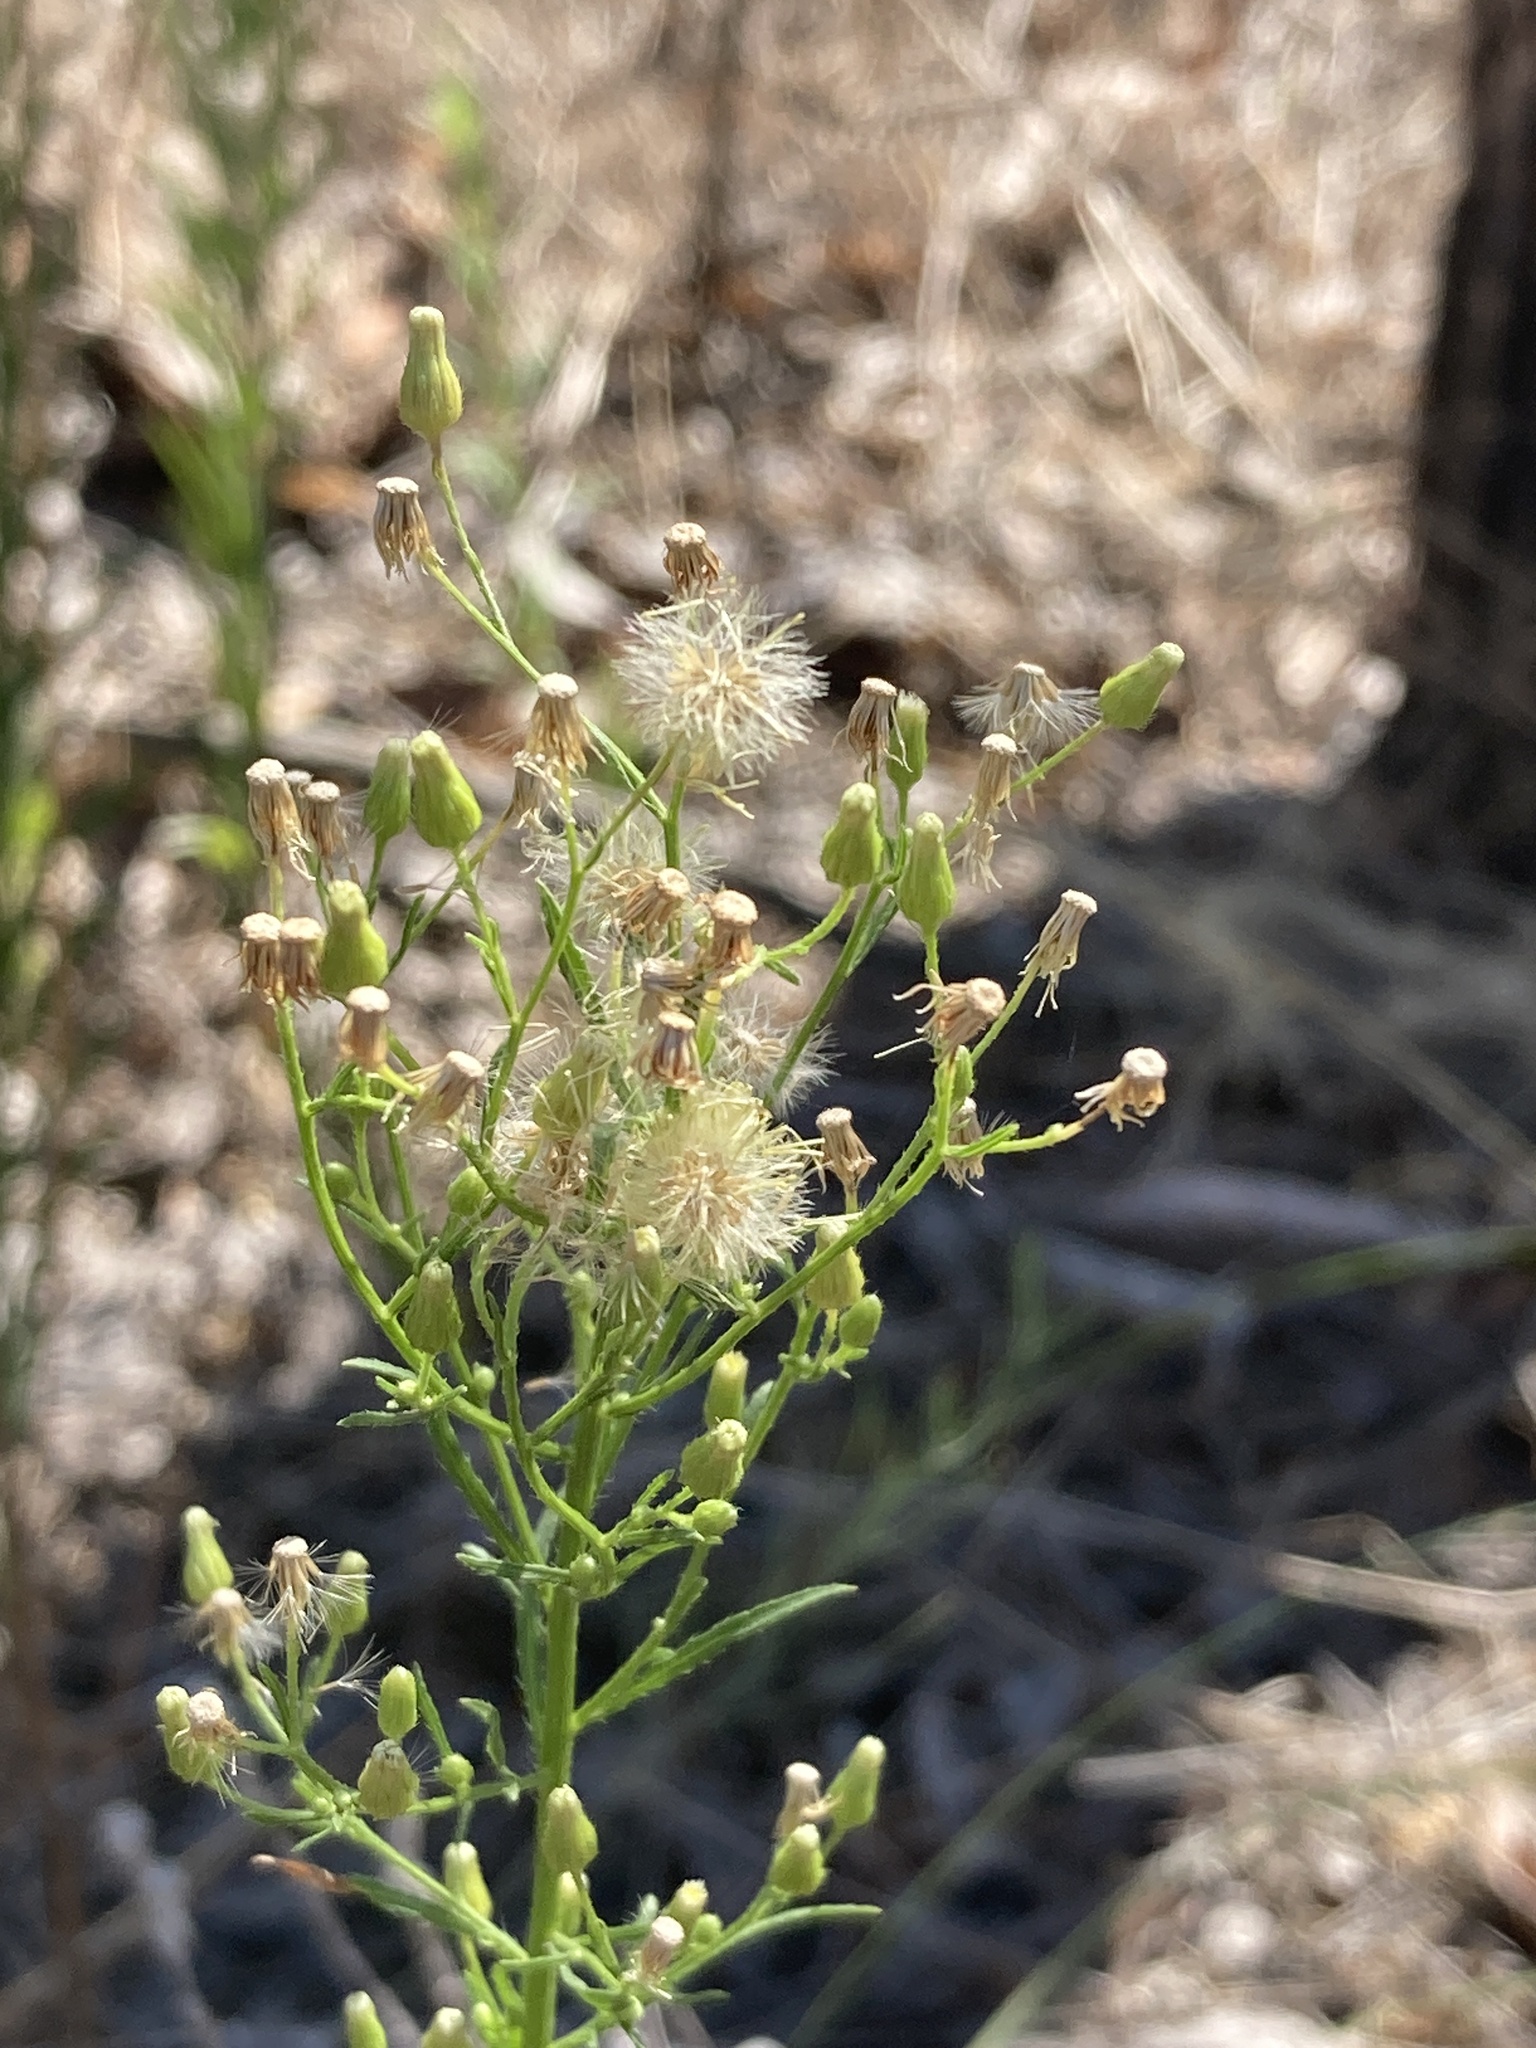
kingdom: Plantae
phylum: Tracheophyta
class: Magnoliopsida
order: Asterales
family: Asteraceae
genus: Erigeron
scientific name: Erigeron canadensis
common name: Canadian fleabane
